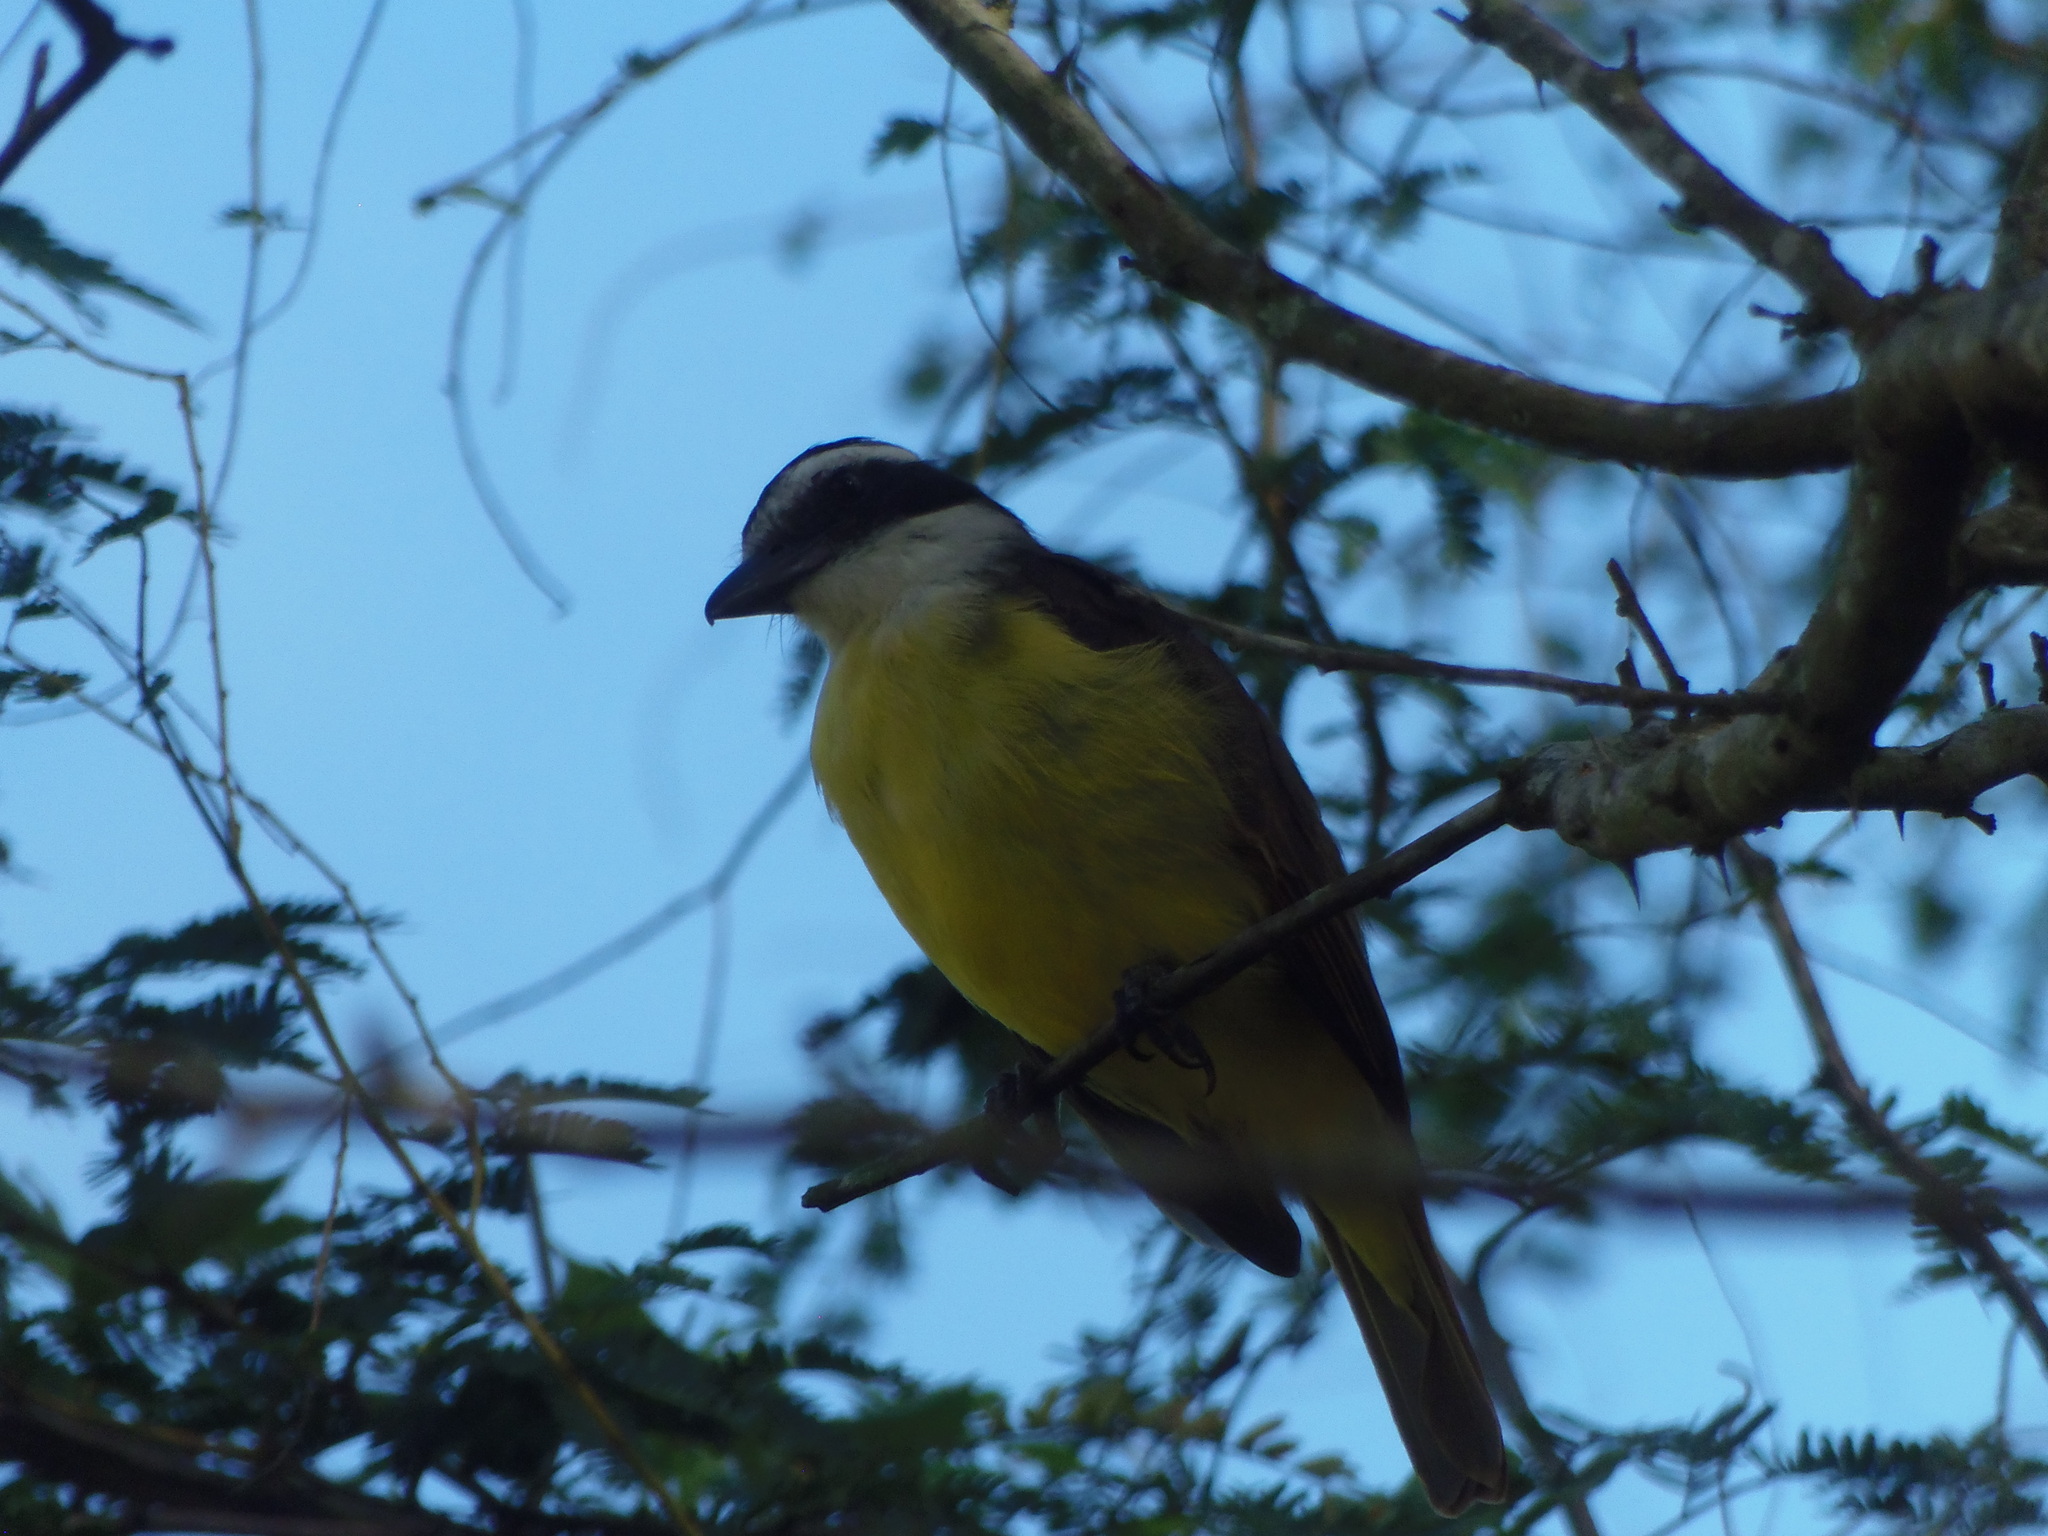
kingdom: Animalia
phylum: Chordata
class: Aves
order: Passeriformes
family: Tyrannidae
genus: Pitangus
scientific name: Pitangus sulphuratus
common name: Great kiskadee
